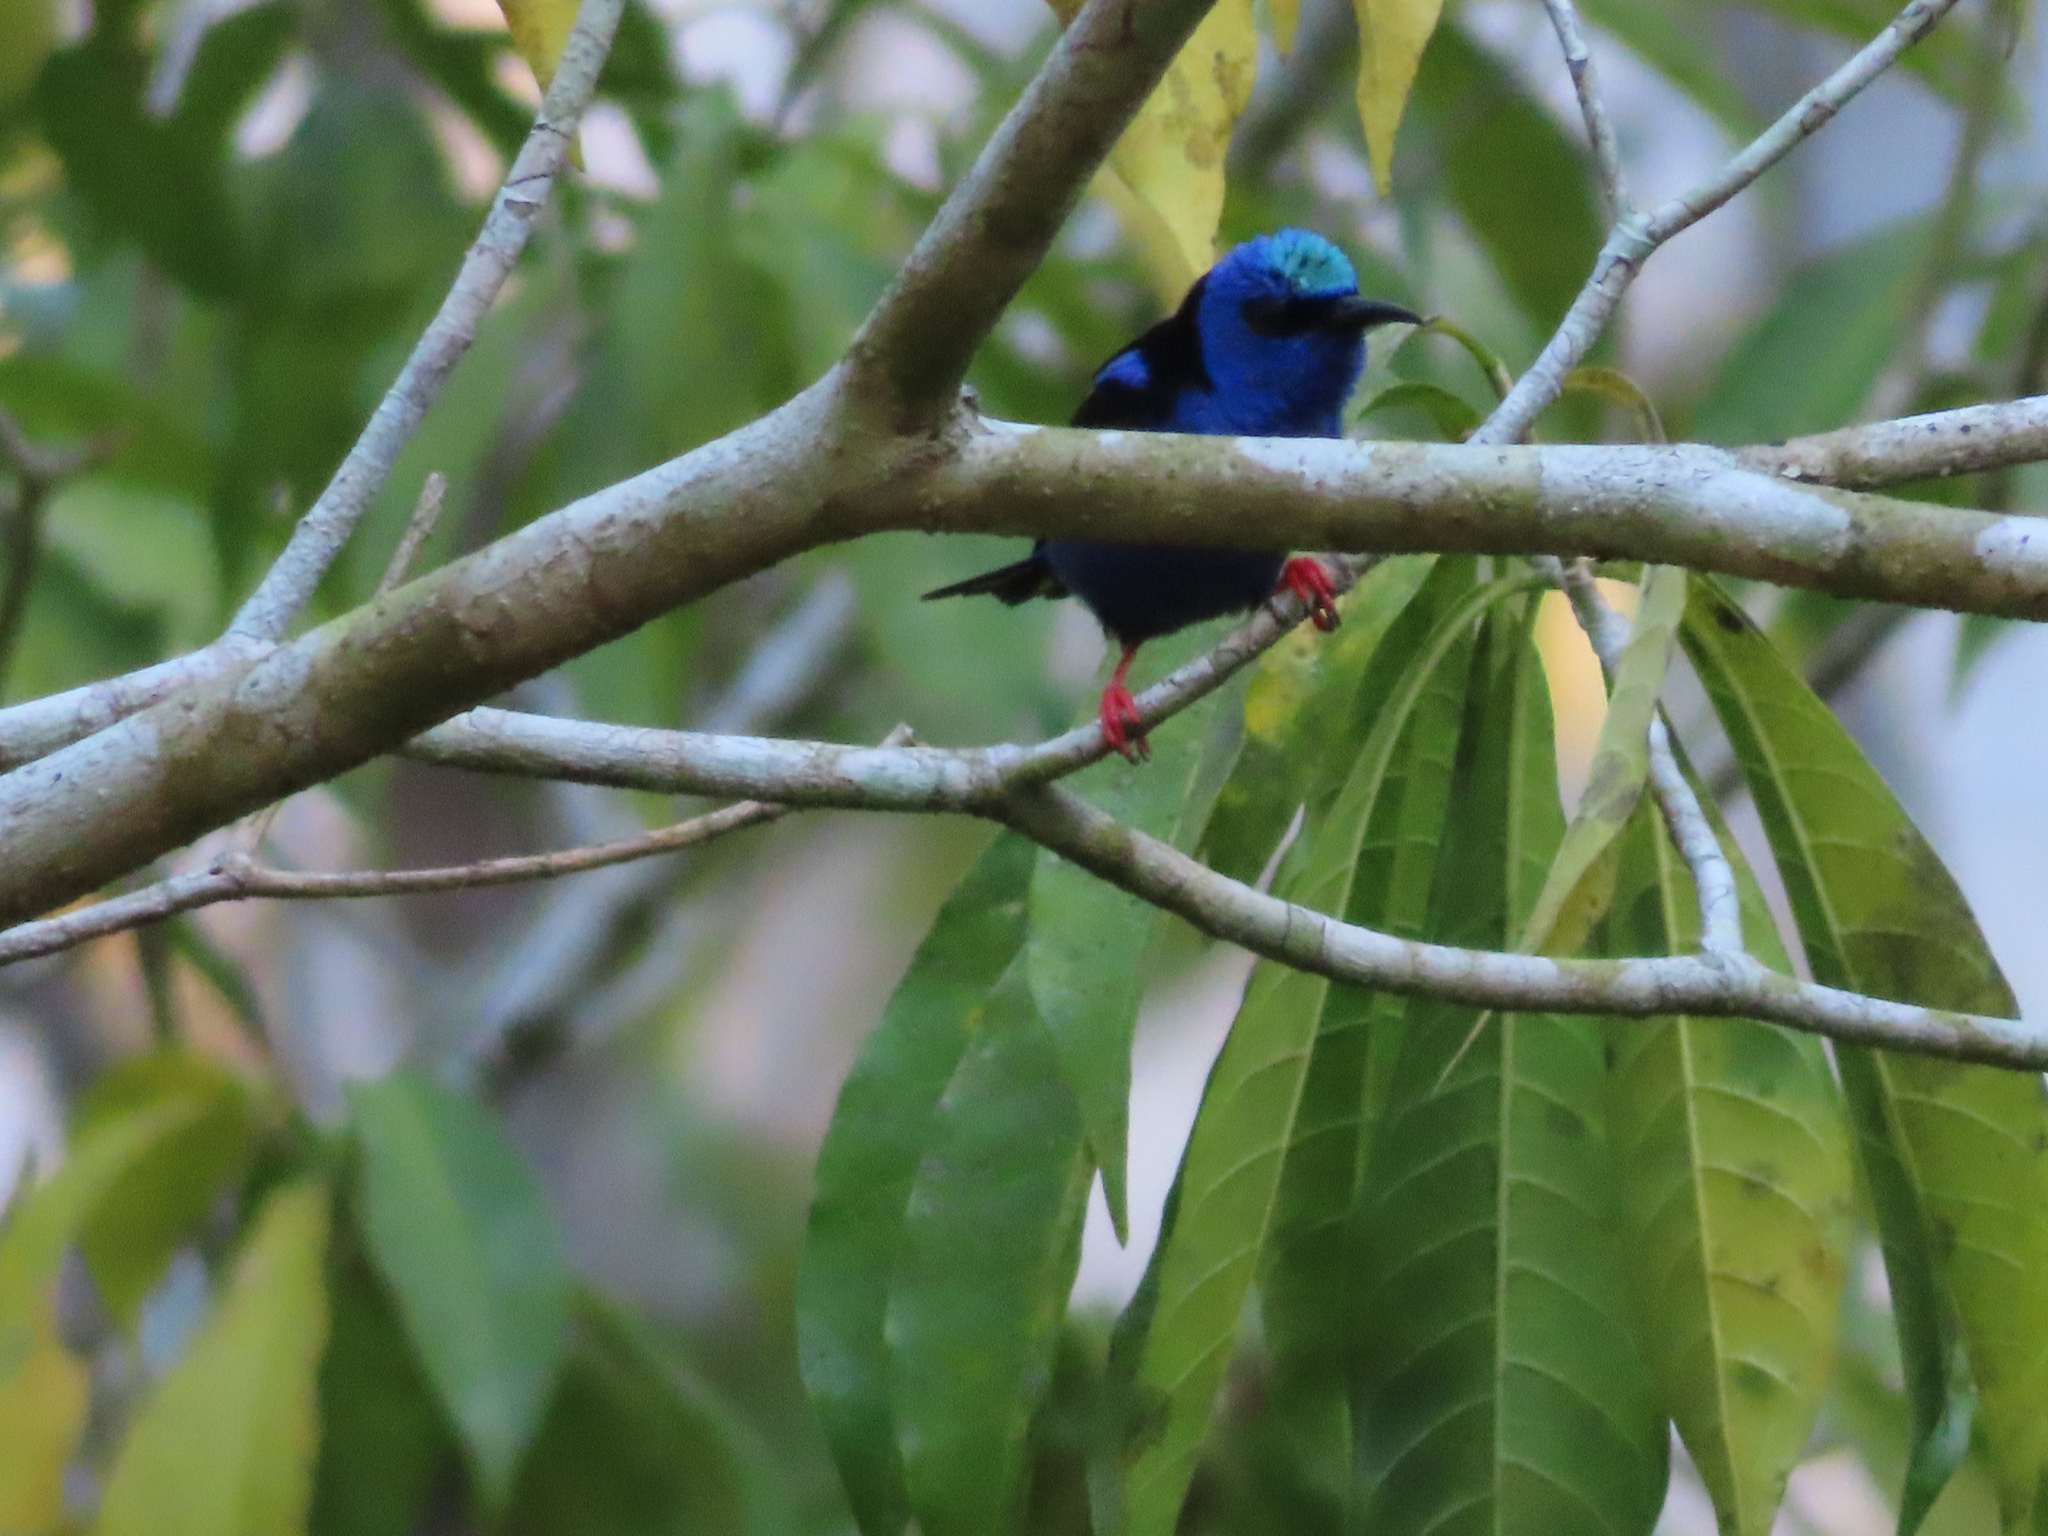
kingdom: Animalia
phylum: Chordata
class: Aves
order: Passeriformes
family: Thraupidae
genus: Cyanerpes
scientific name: Cyanerpes cyaneus
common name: Red-legged honeycreeper
